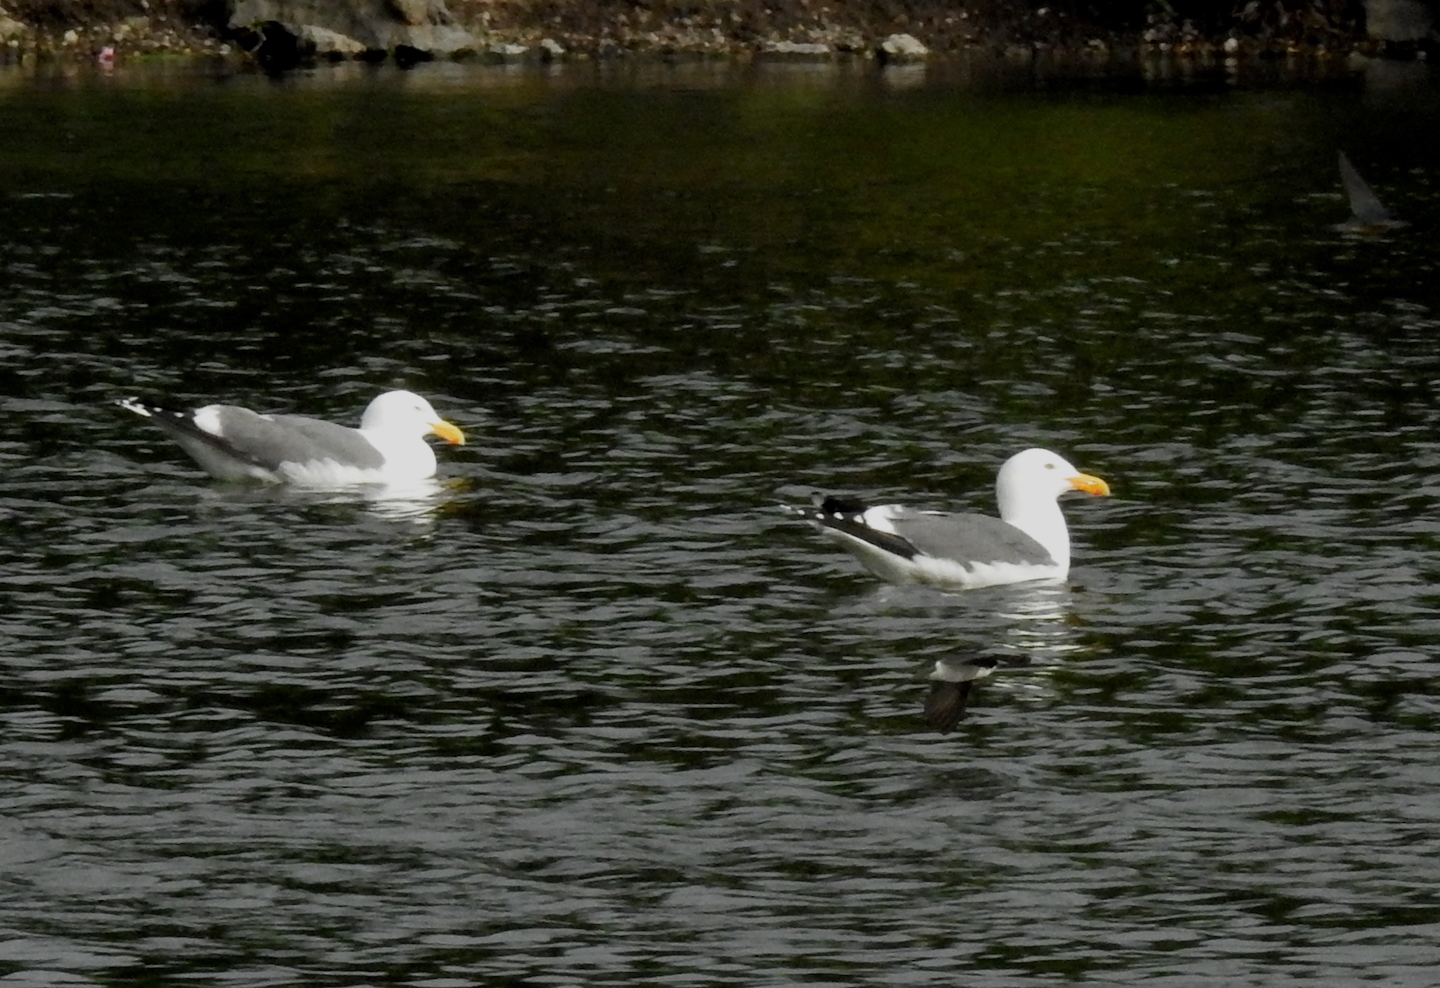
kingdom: Animalia
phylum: Chordata
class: Aves
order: Charadriiformes
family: Laridae
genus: Larus
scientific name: Larus occidentalis
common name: Western gull
